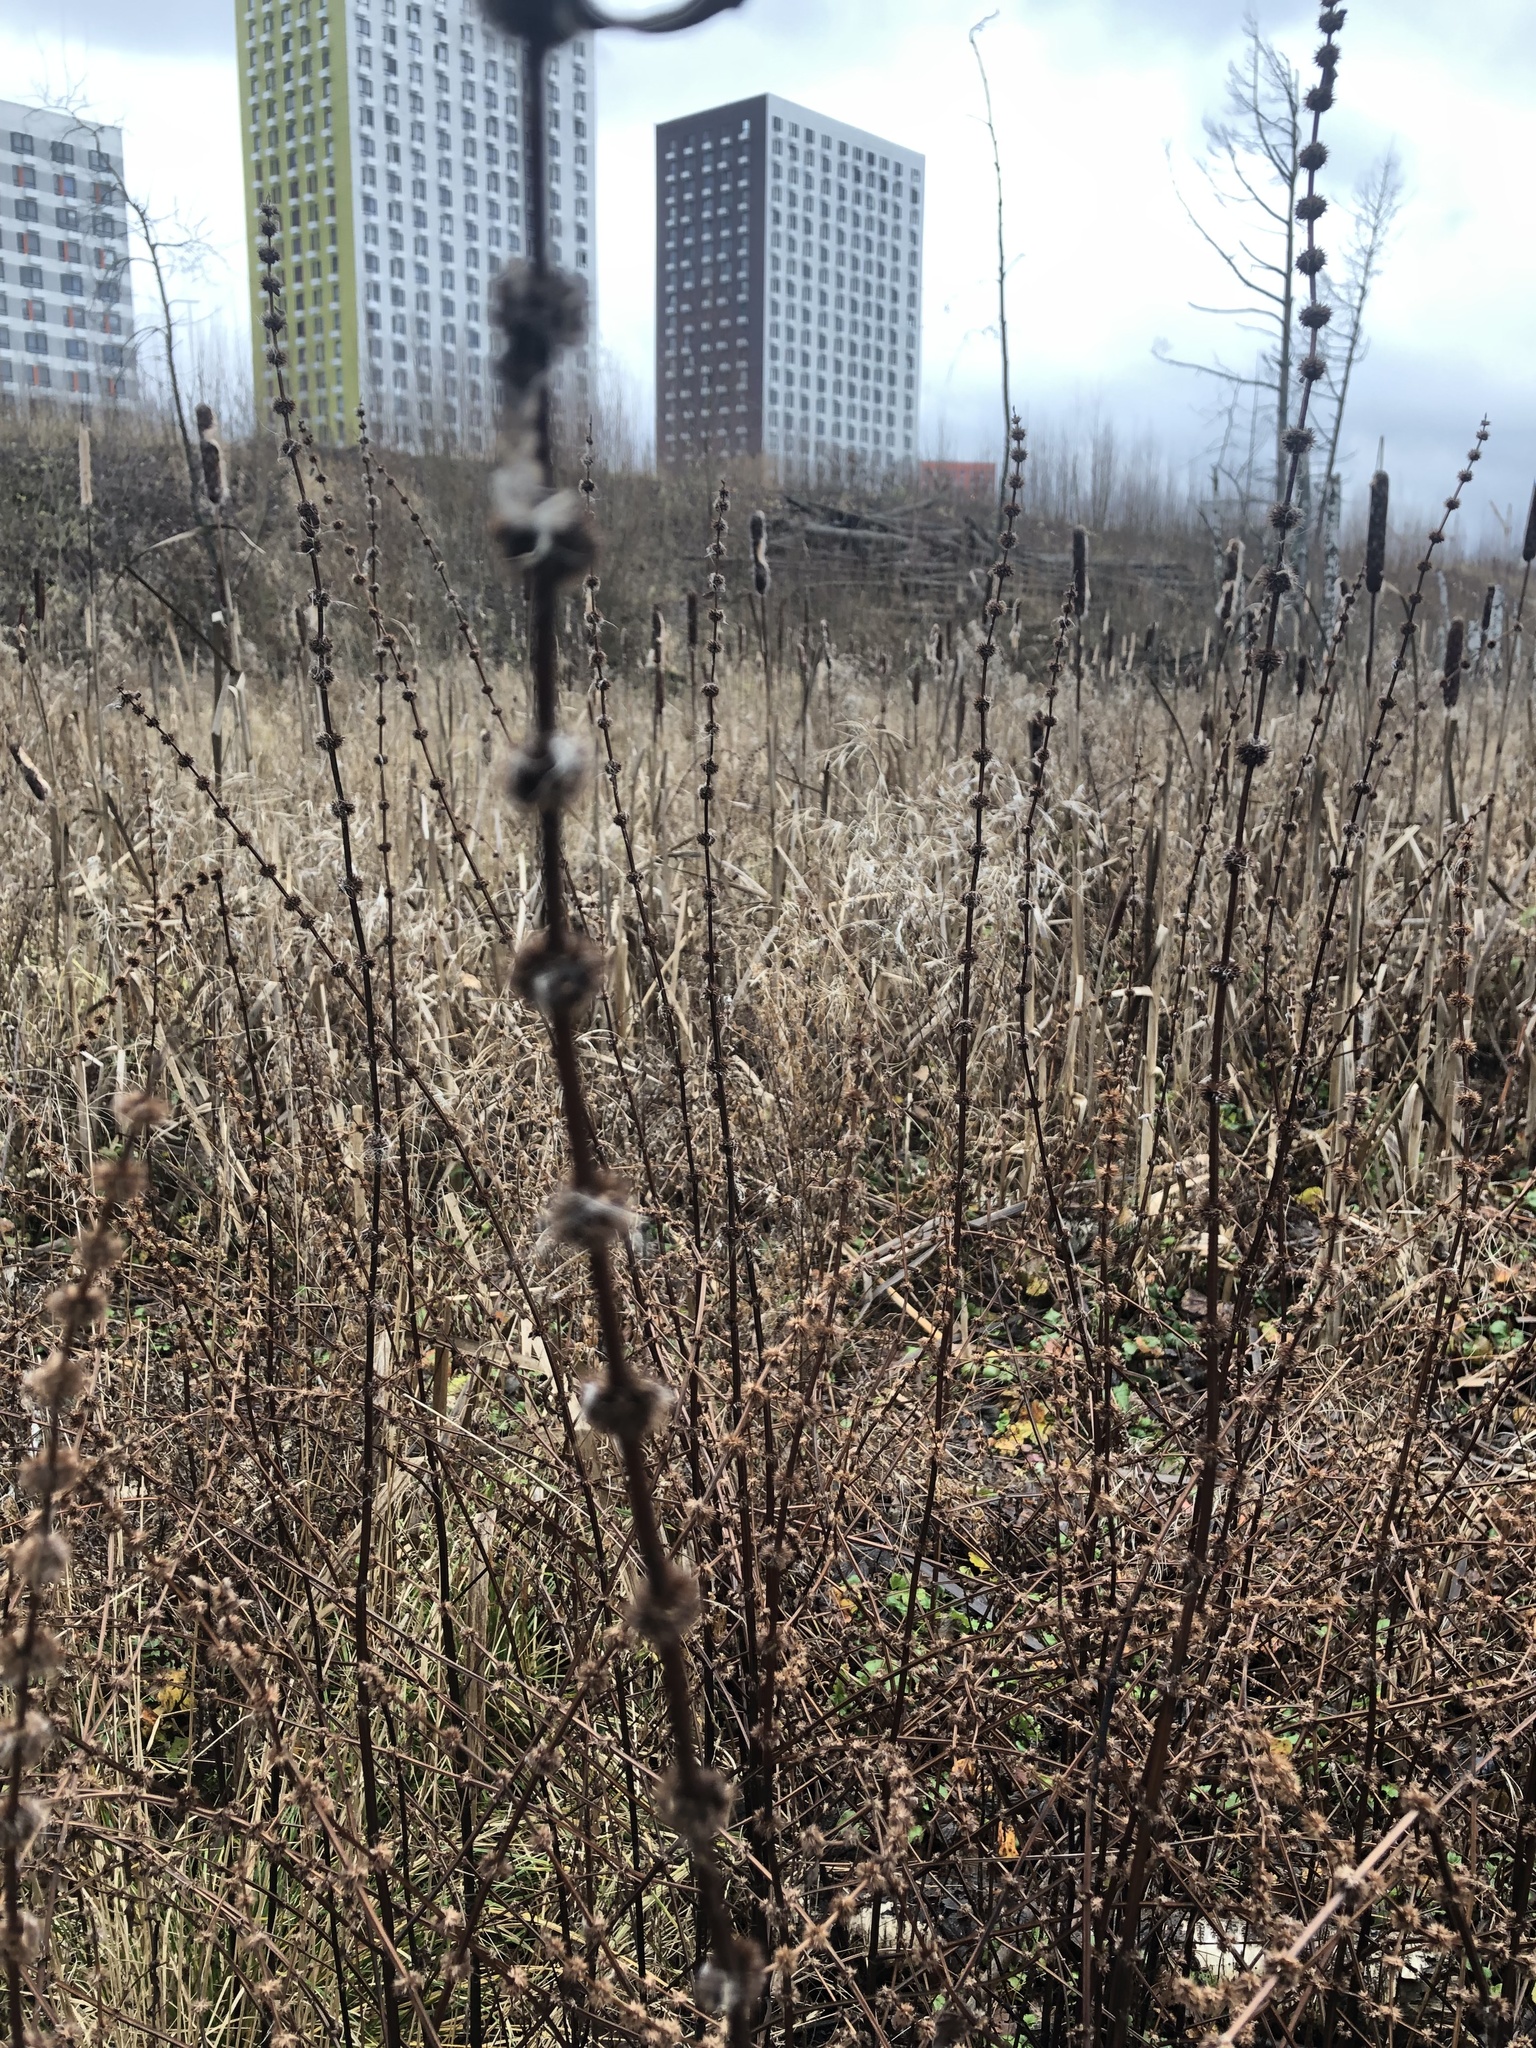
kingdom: Plantae
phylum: Tracheophyta
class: Magnoliopsida
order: Lamiales
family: Lamiaceae
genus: Lycopus
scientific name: Lycopus europaeus
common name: European bugleweed
